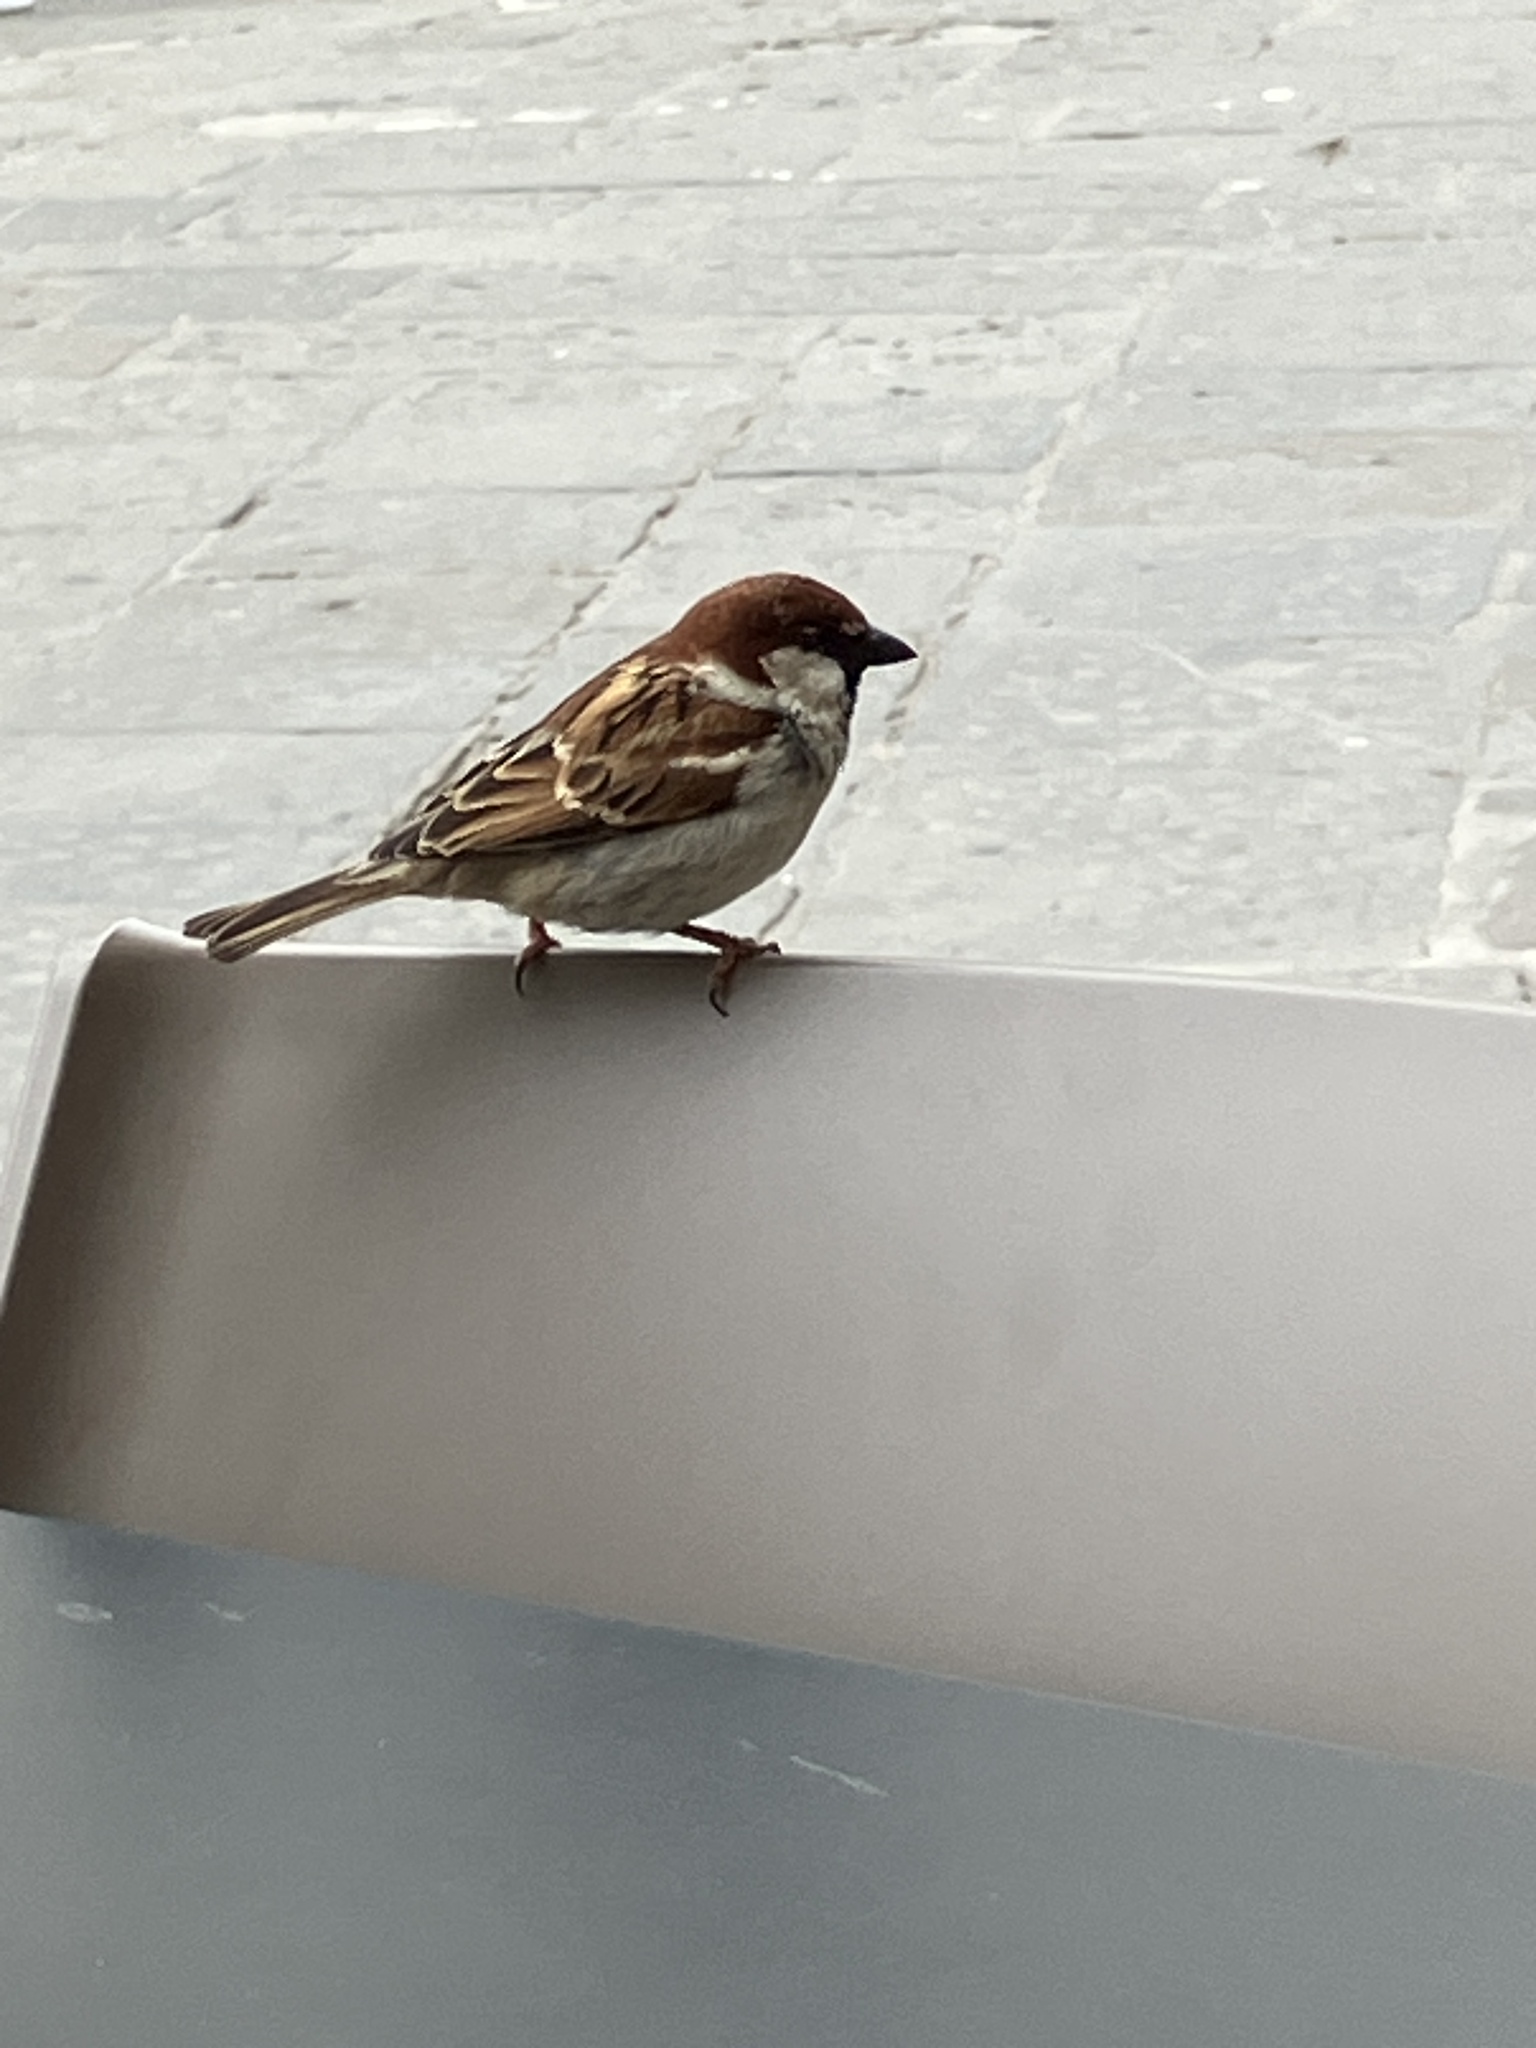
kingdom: Animalia
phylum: Chordata
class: Aves
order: Passeriformes
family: Passeridae
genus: Passer
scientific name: Passer italiae
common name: Italian sparrow
